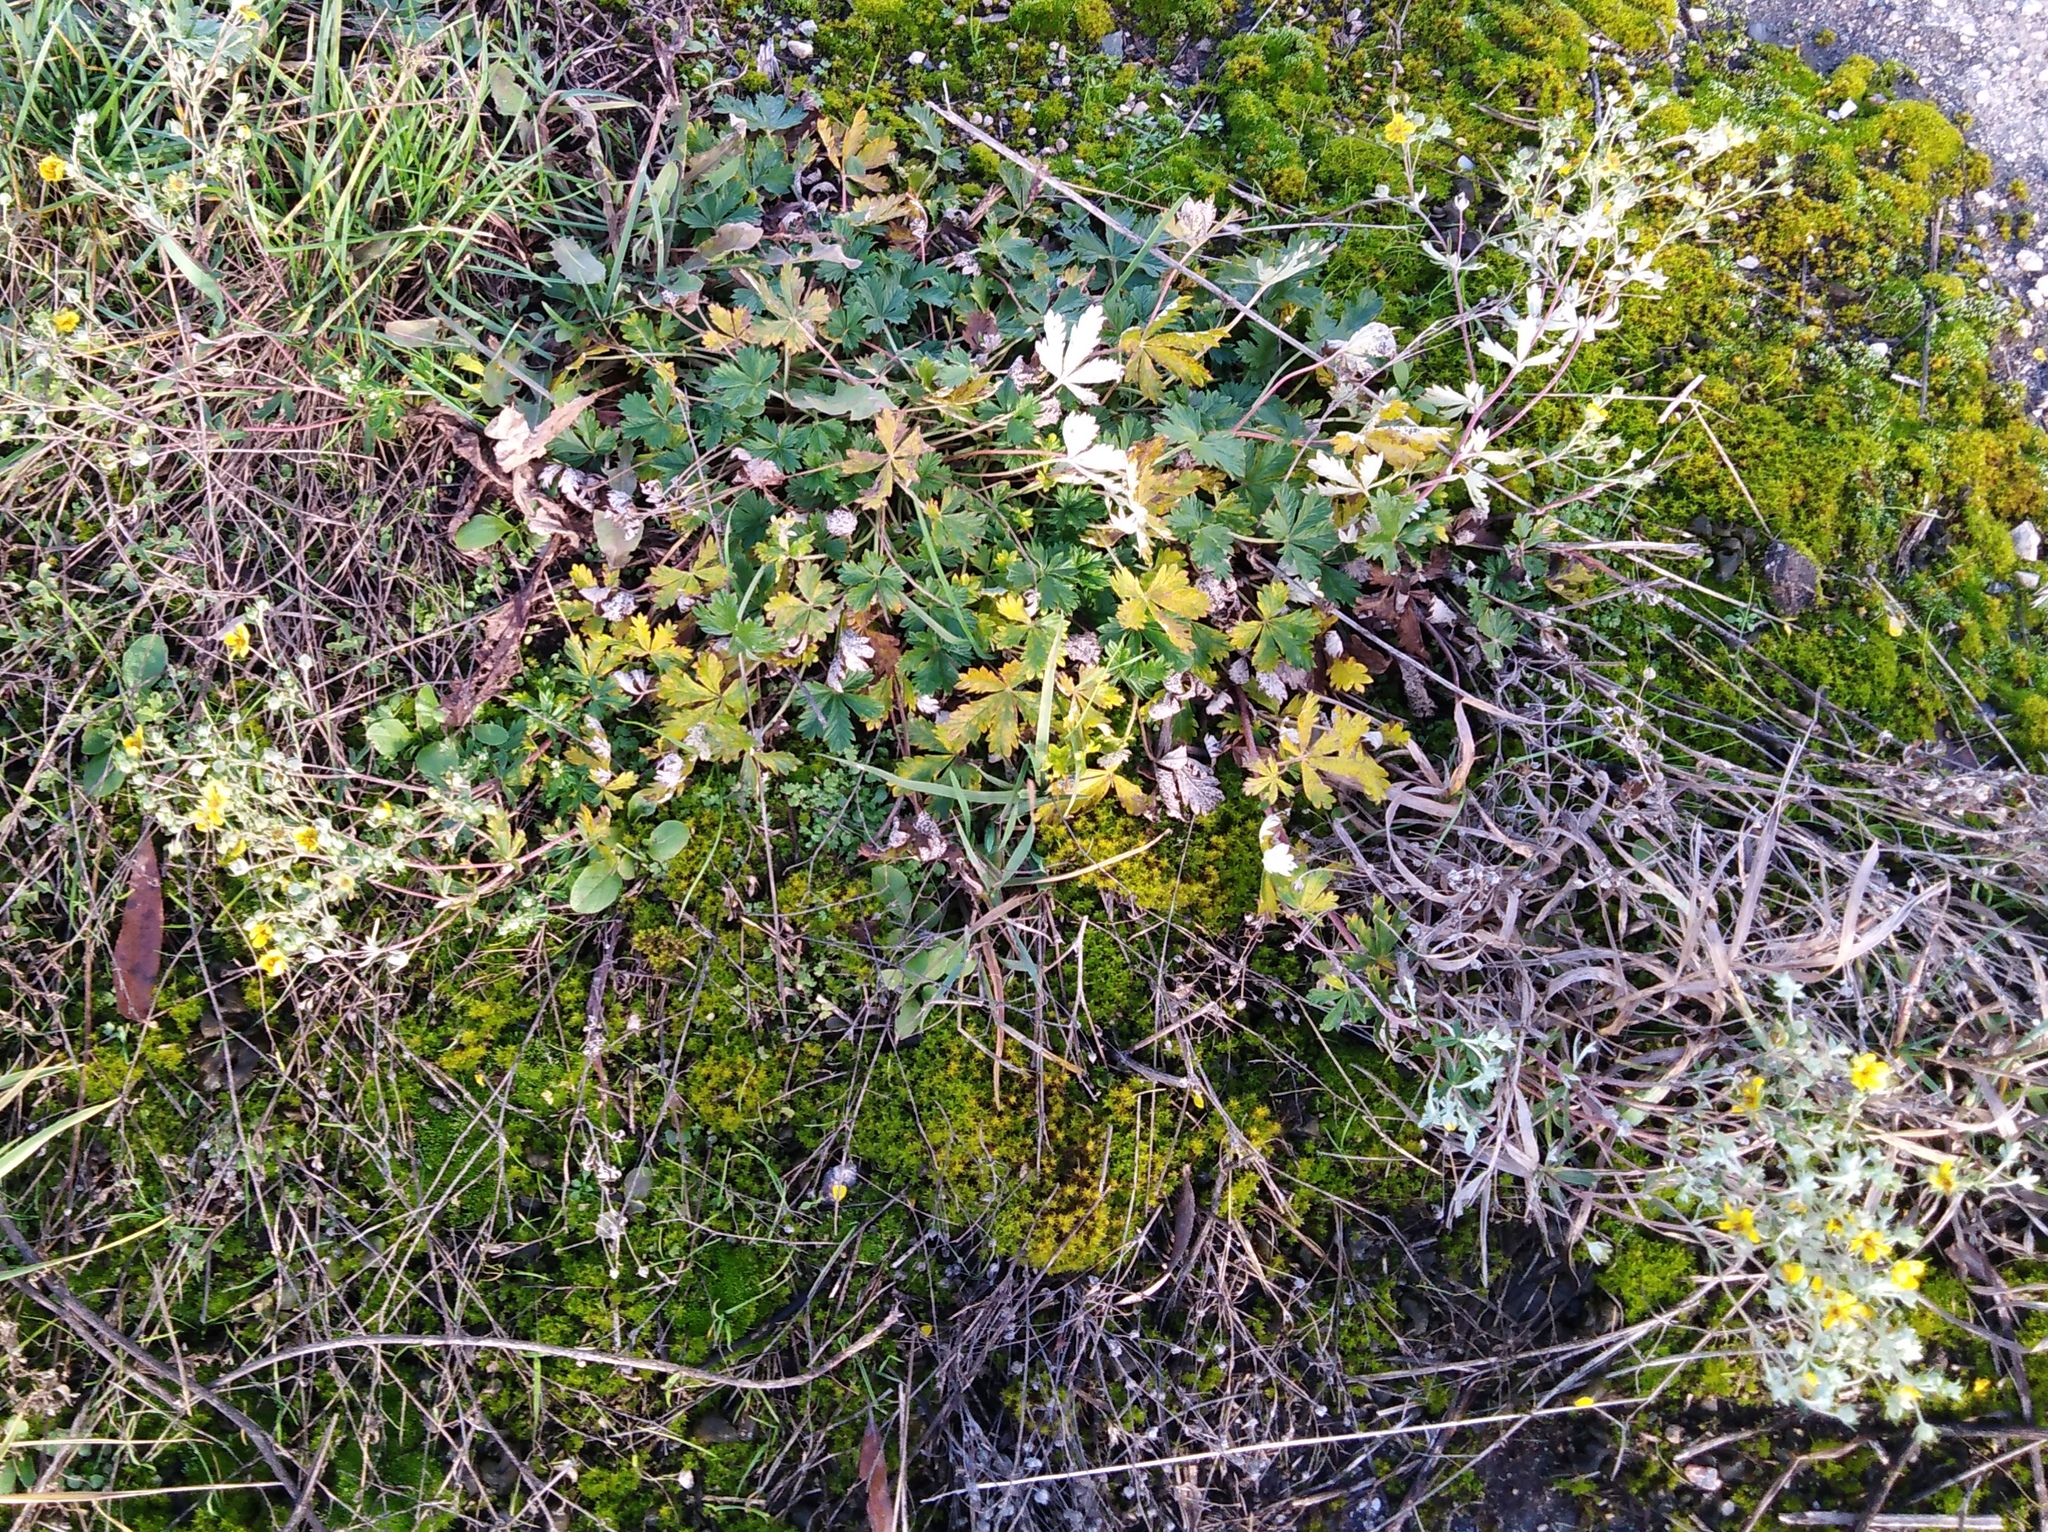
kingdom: Plantae
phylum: Tracheophyta
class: Magnoliopsida
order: Rosales
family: Rosaceae
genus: Potentilla
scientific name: Potentilla argentea
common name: Hoary cinquefoil
